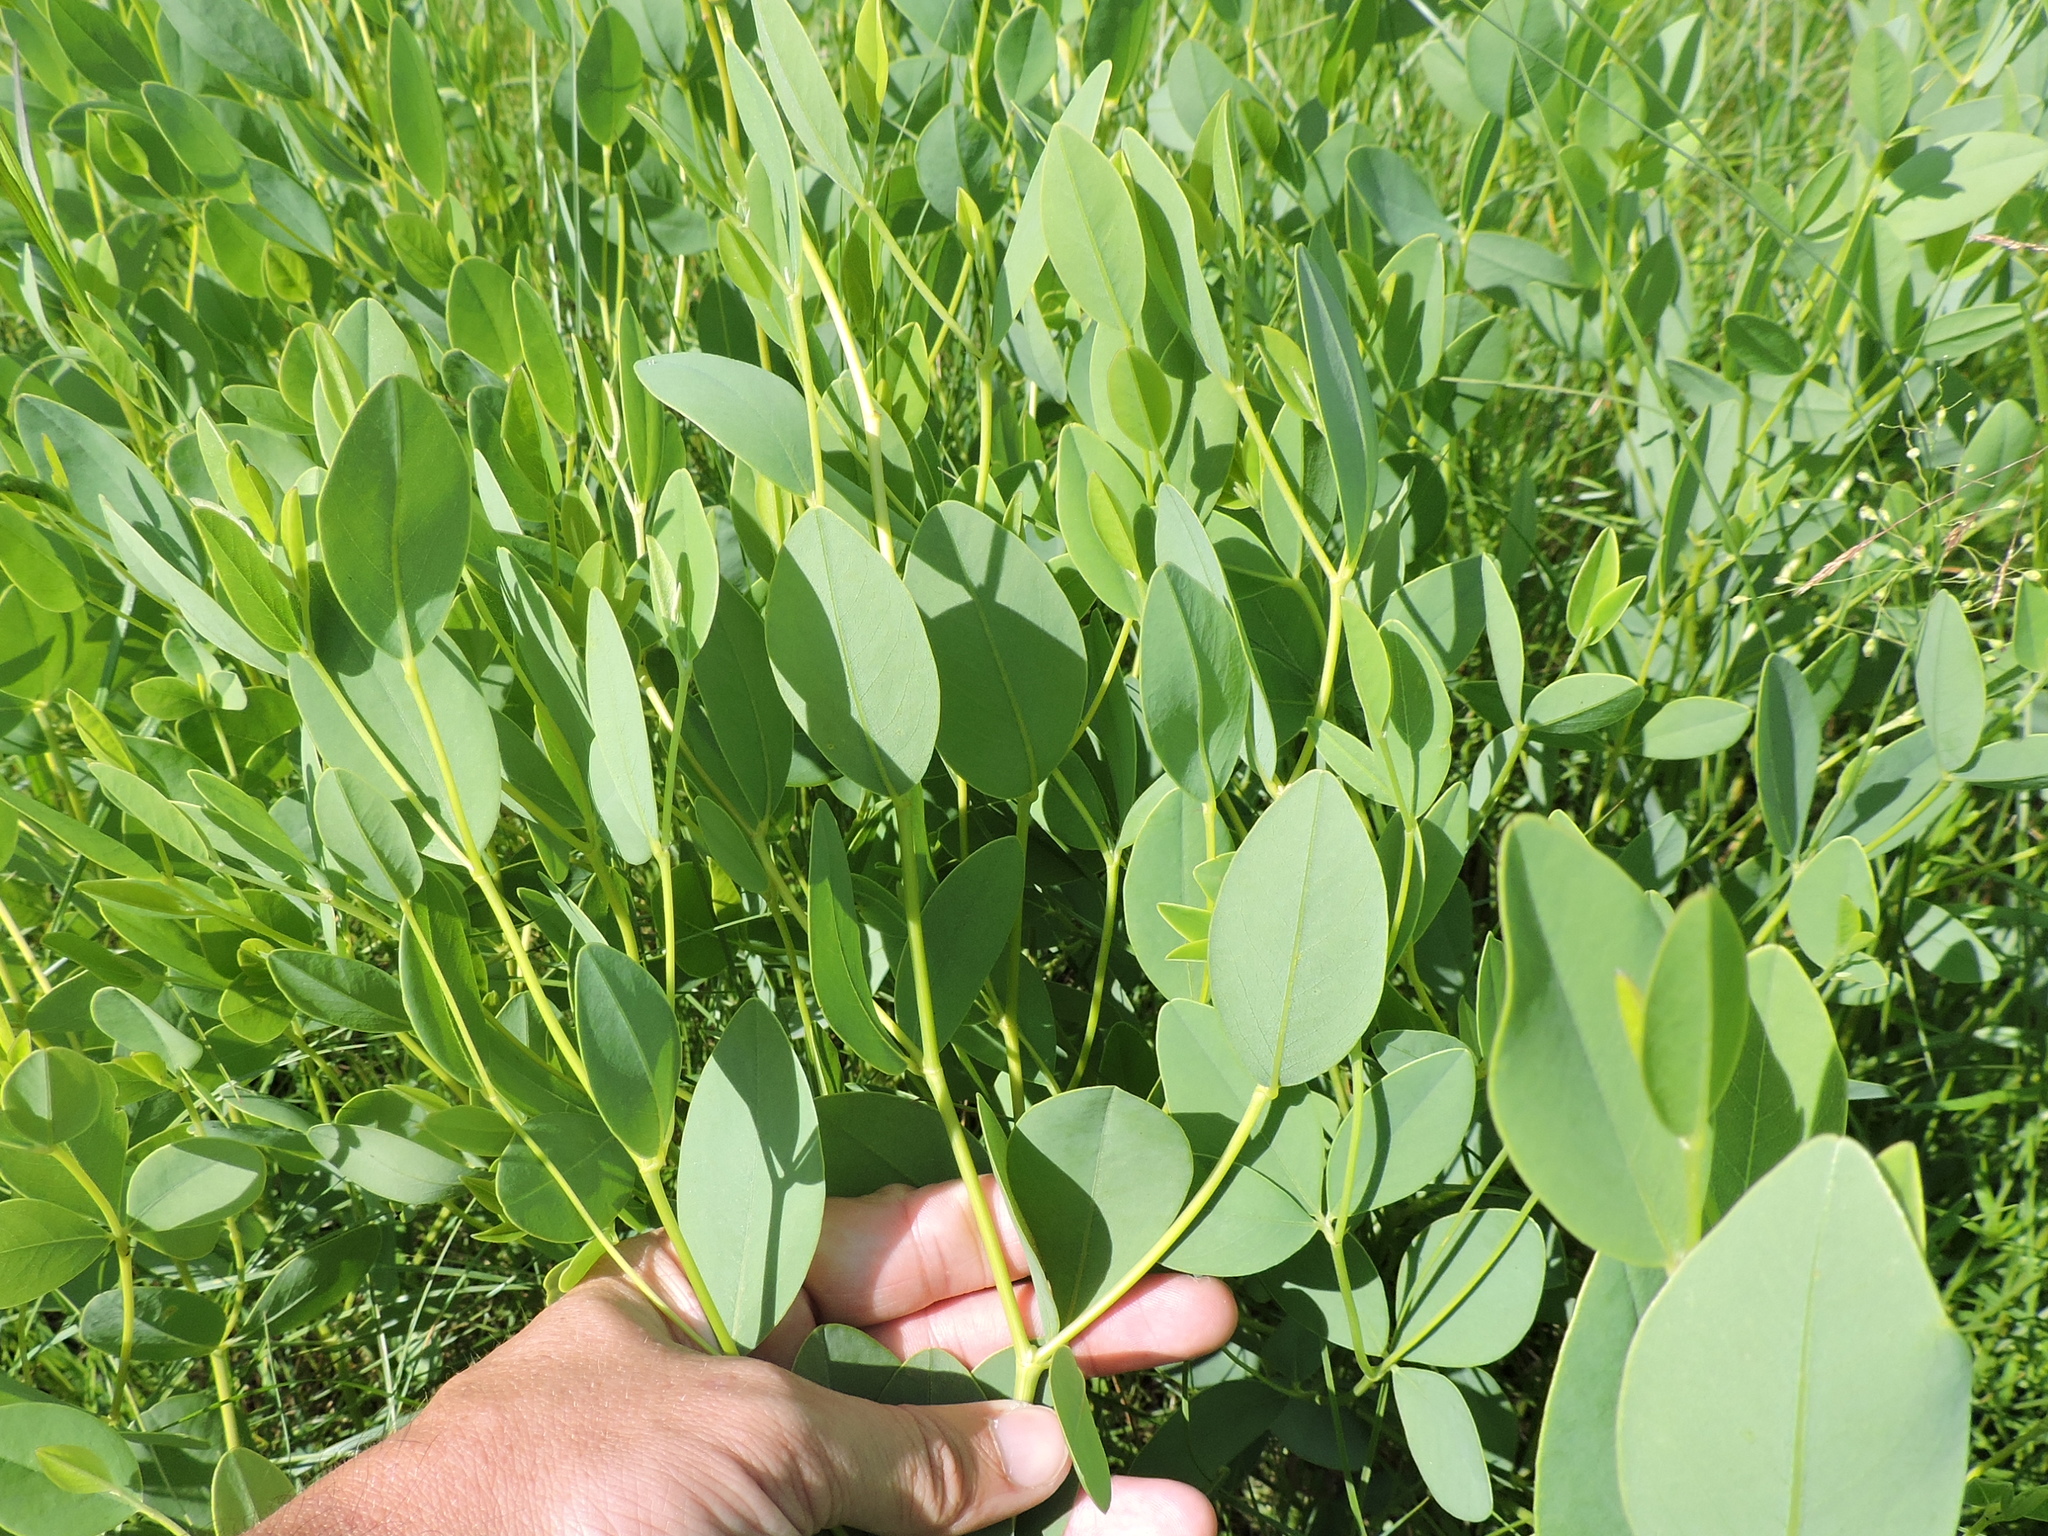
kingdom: Plantae
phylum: Tracheophyta
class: Magnoliopsida
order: Fabales
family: Fabaceae
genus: Baptisia
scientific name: Baptisia sphaerocarpa
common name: Round wild indigo
